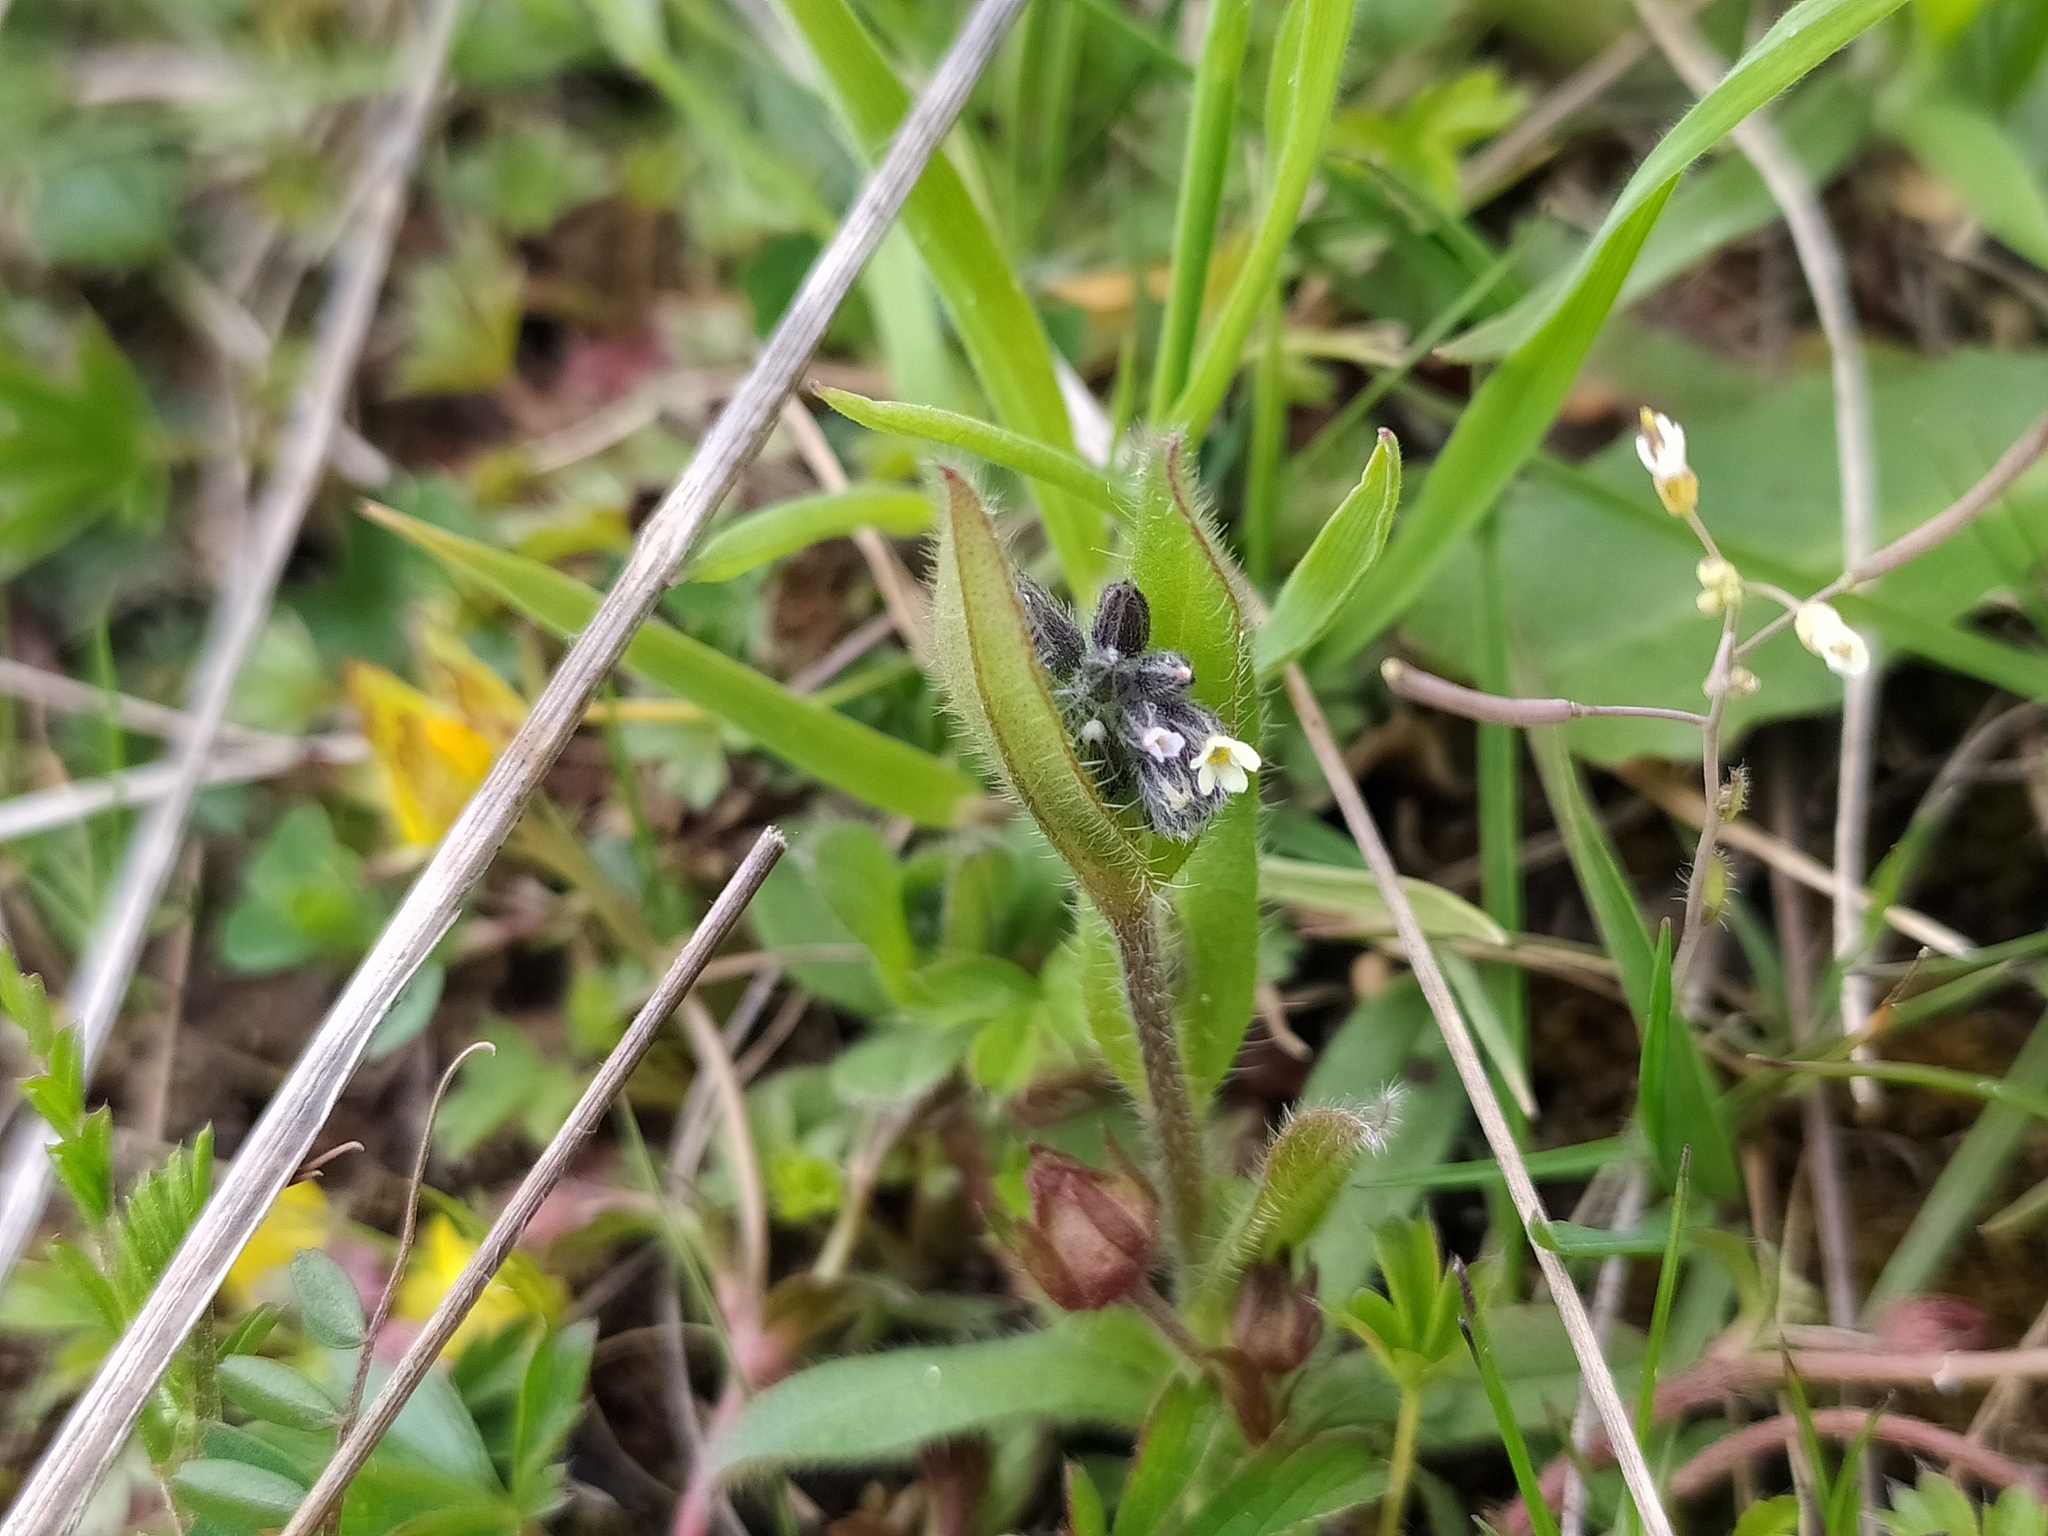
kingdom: Plantae
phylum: Tracheophyta
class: Magnoliopsida
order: Boraginales
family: Boraginaceae
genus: Myosotis
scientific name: Myosotis discolor
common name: Changing forget-me-not
